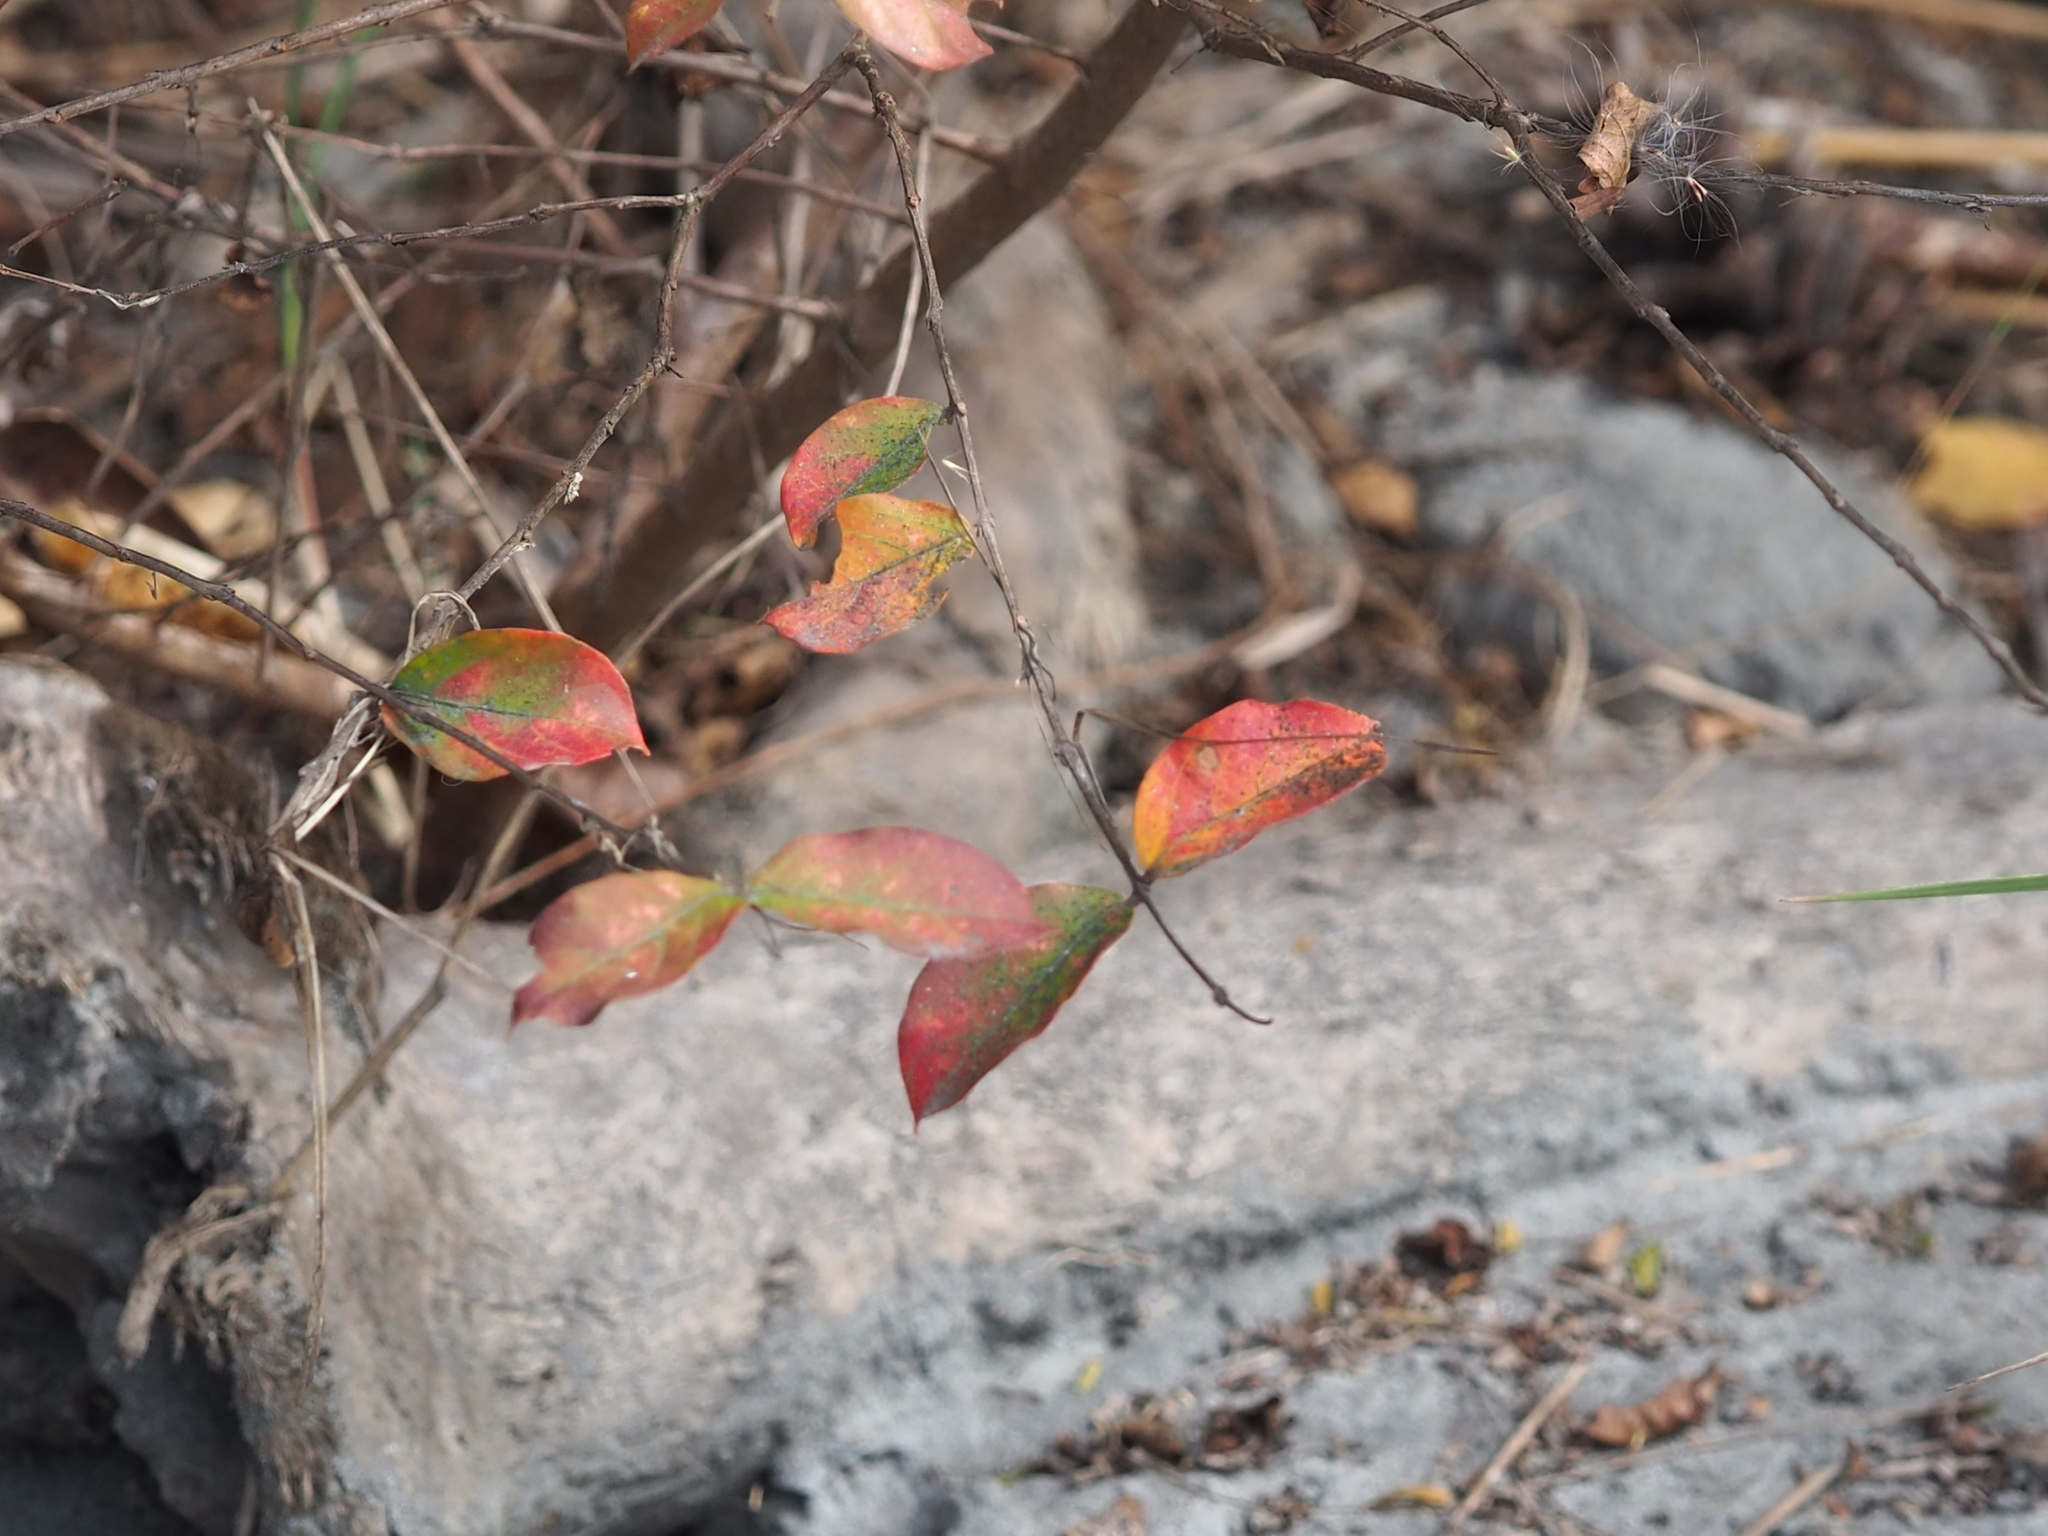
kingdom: Plantae
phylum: Tracheophyta
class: Magnoliopsida
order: Myrtales
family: Lythraceae
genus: Lagerstroemia
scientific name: Lagerstroemia subcostata
